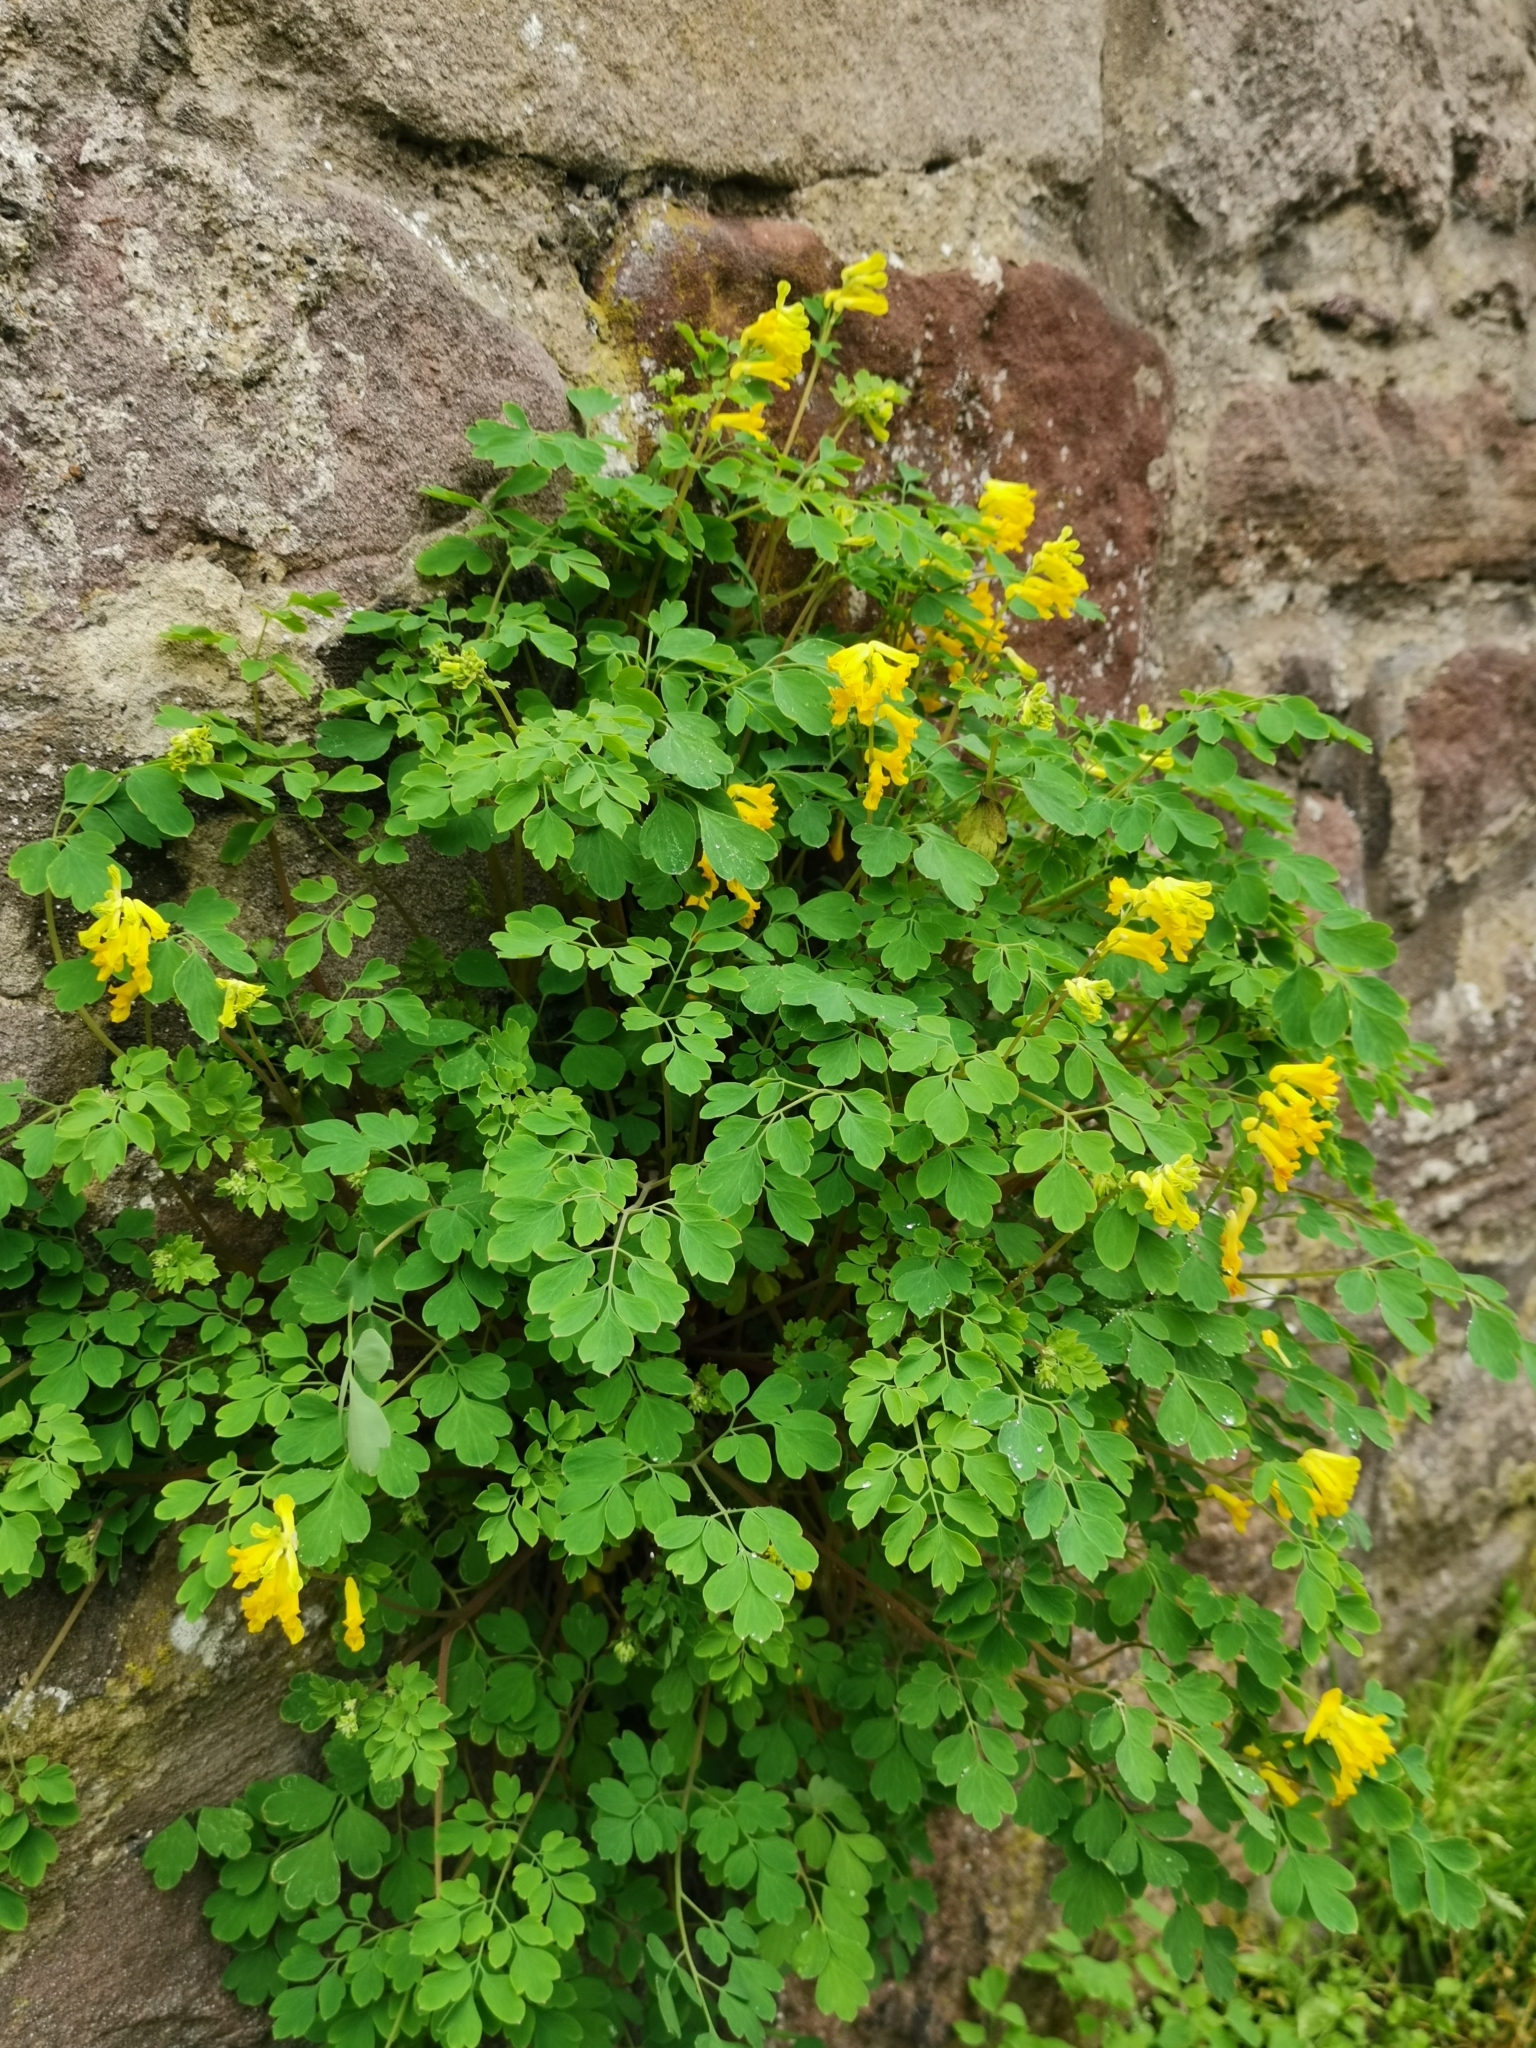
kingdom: Plantae
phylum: Tracheophyta
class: Magnoliopsida
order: Ranunculales
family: Papaveraceae
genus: Pseudofumaria
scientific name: Pseudofumaria lutea
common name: Yellow corydalis
